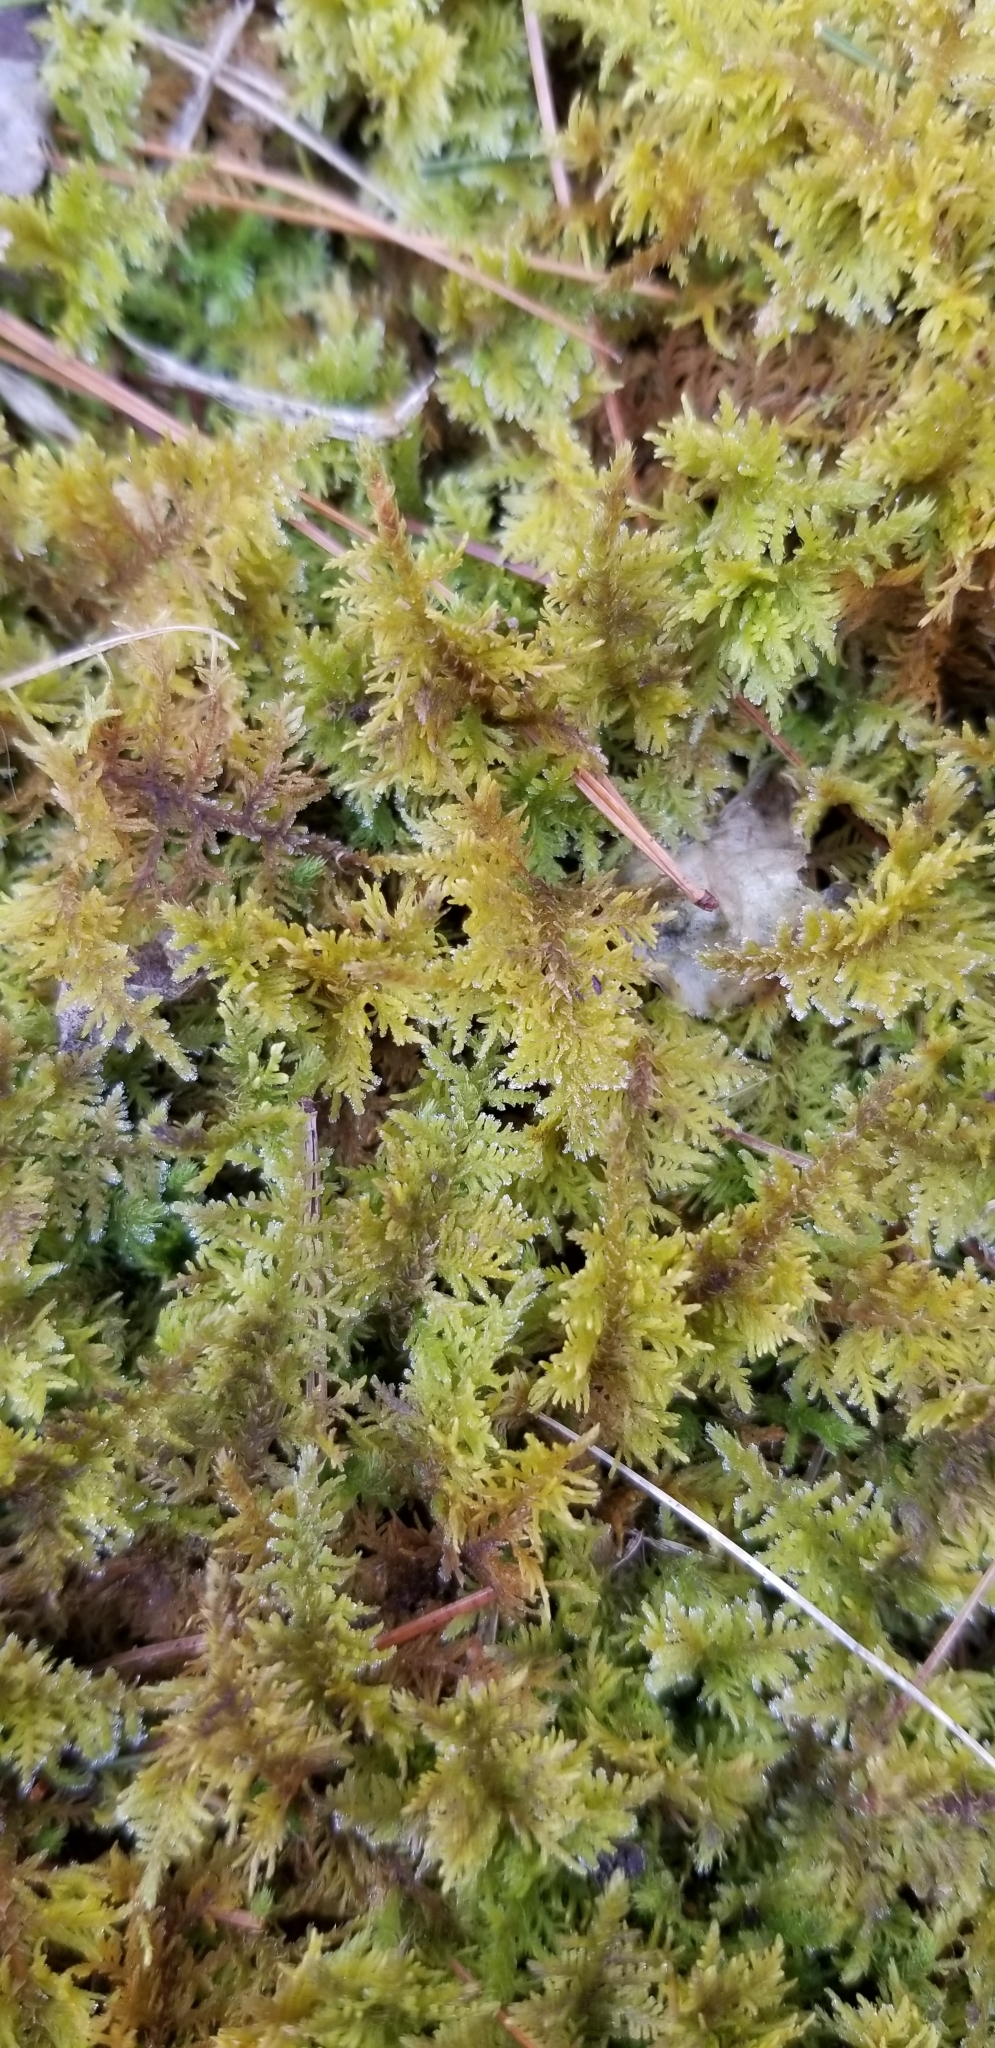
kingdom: Plantae
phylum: Bryophyta
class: Bryopsida
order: Hypnales
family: Thuidiaceae
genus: Thuidium
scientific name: Thuidium delicatulum
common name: Delicate fern moss
